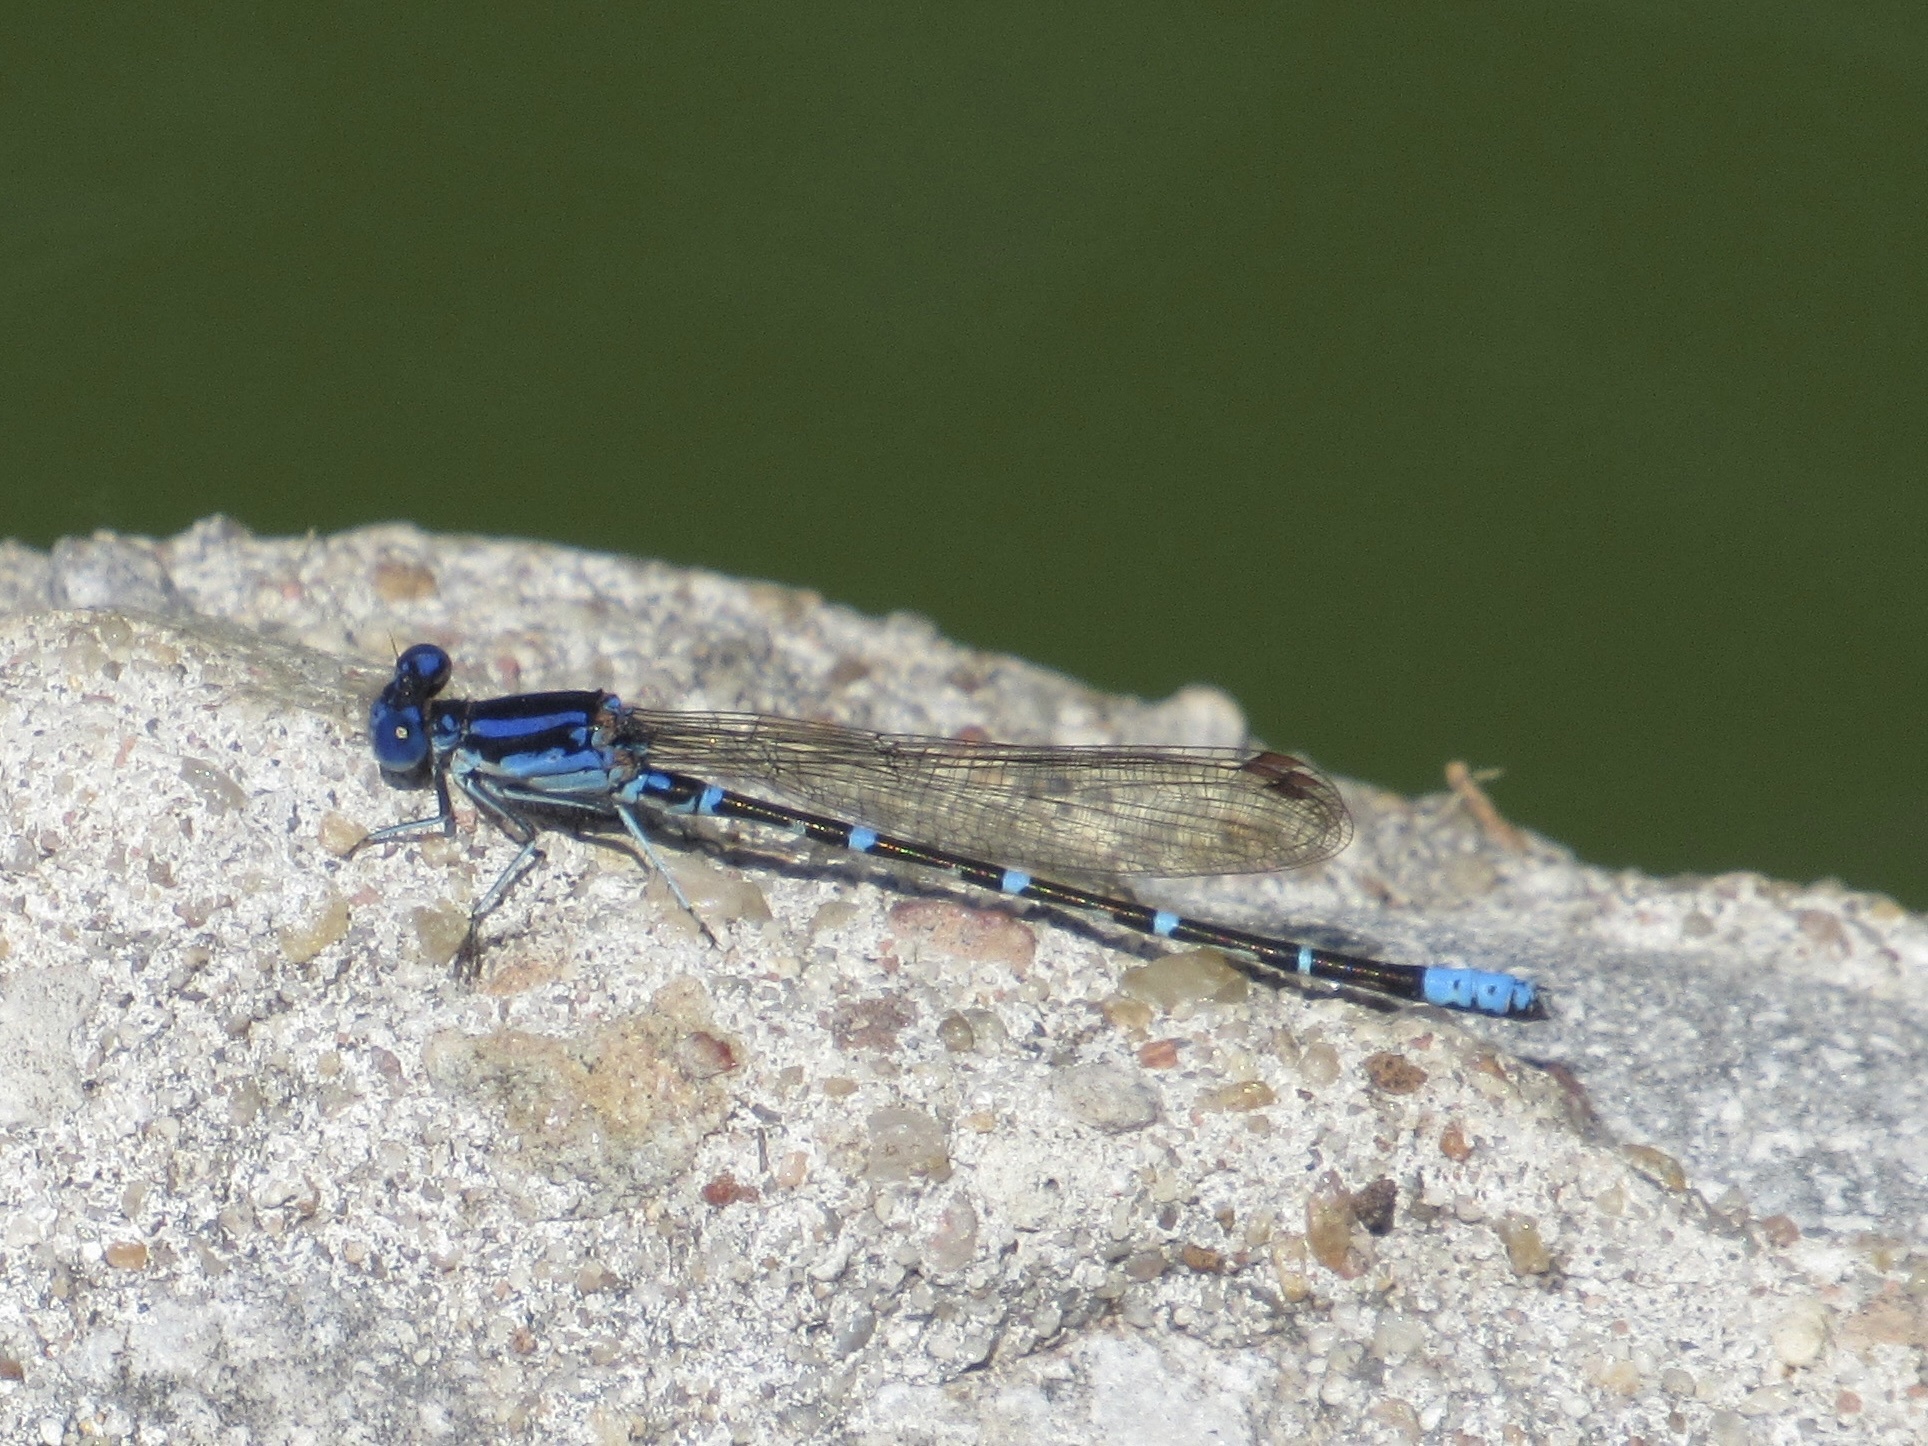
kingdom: Animalia
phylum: Arthropoda
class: Insecta
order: Odonata
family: Coenagrionidae
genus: Argia
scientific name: Argia sedula
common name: Blue-ringed dancer
